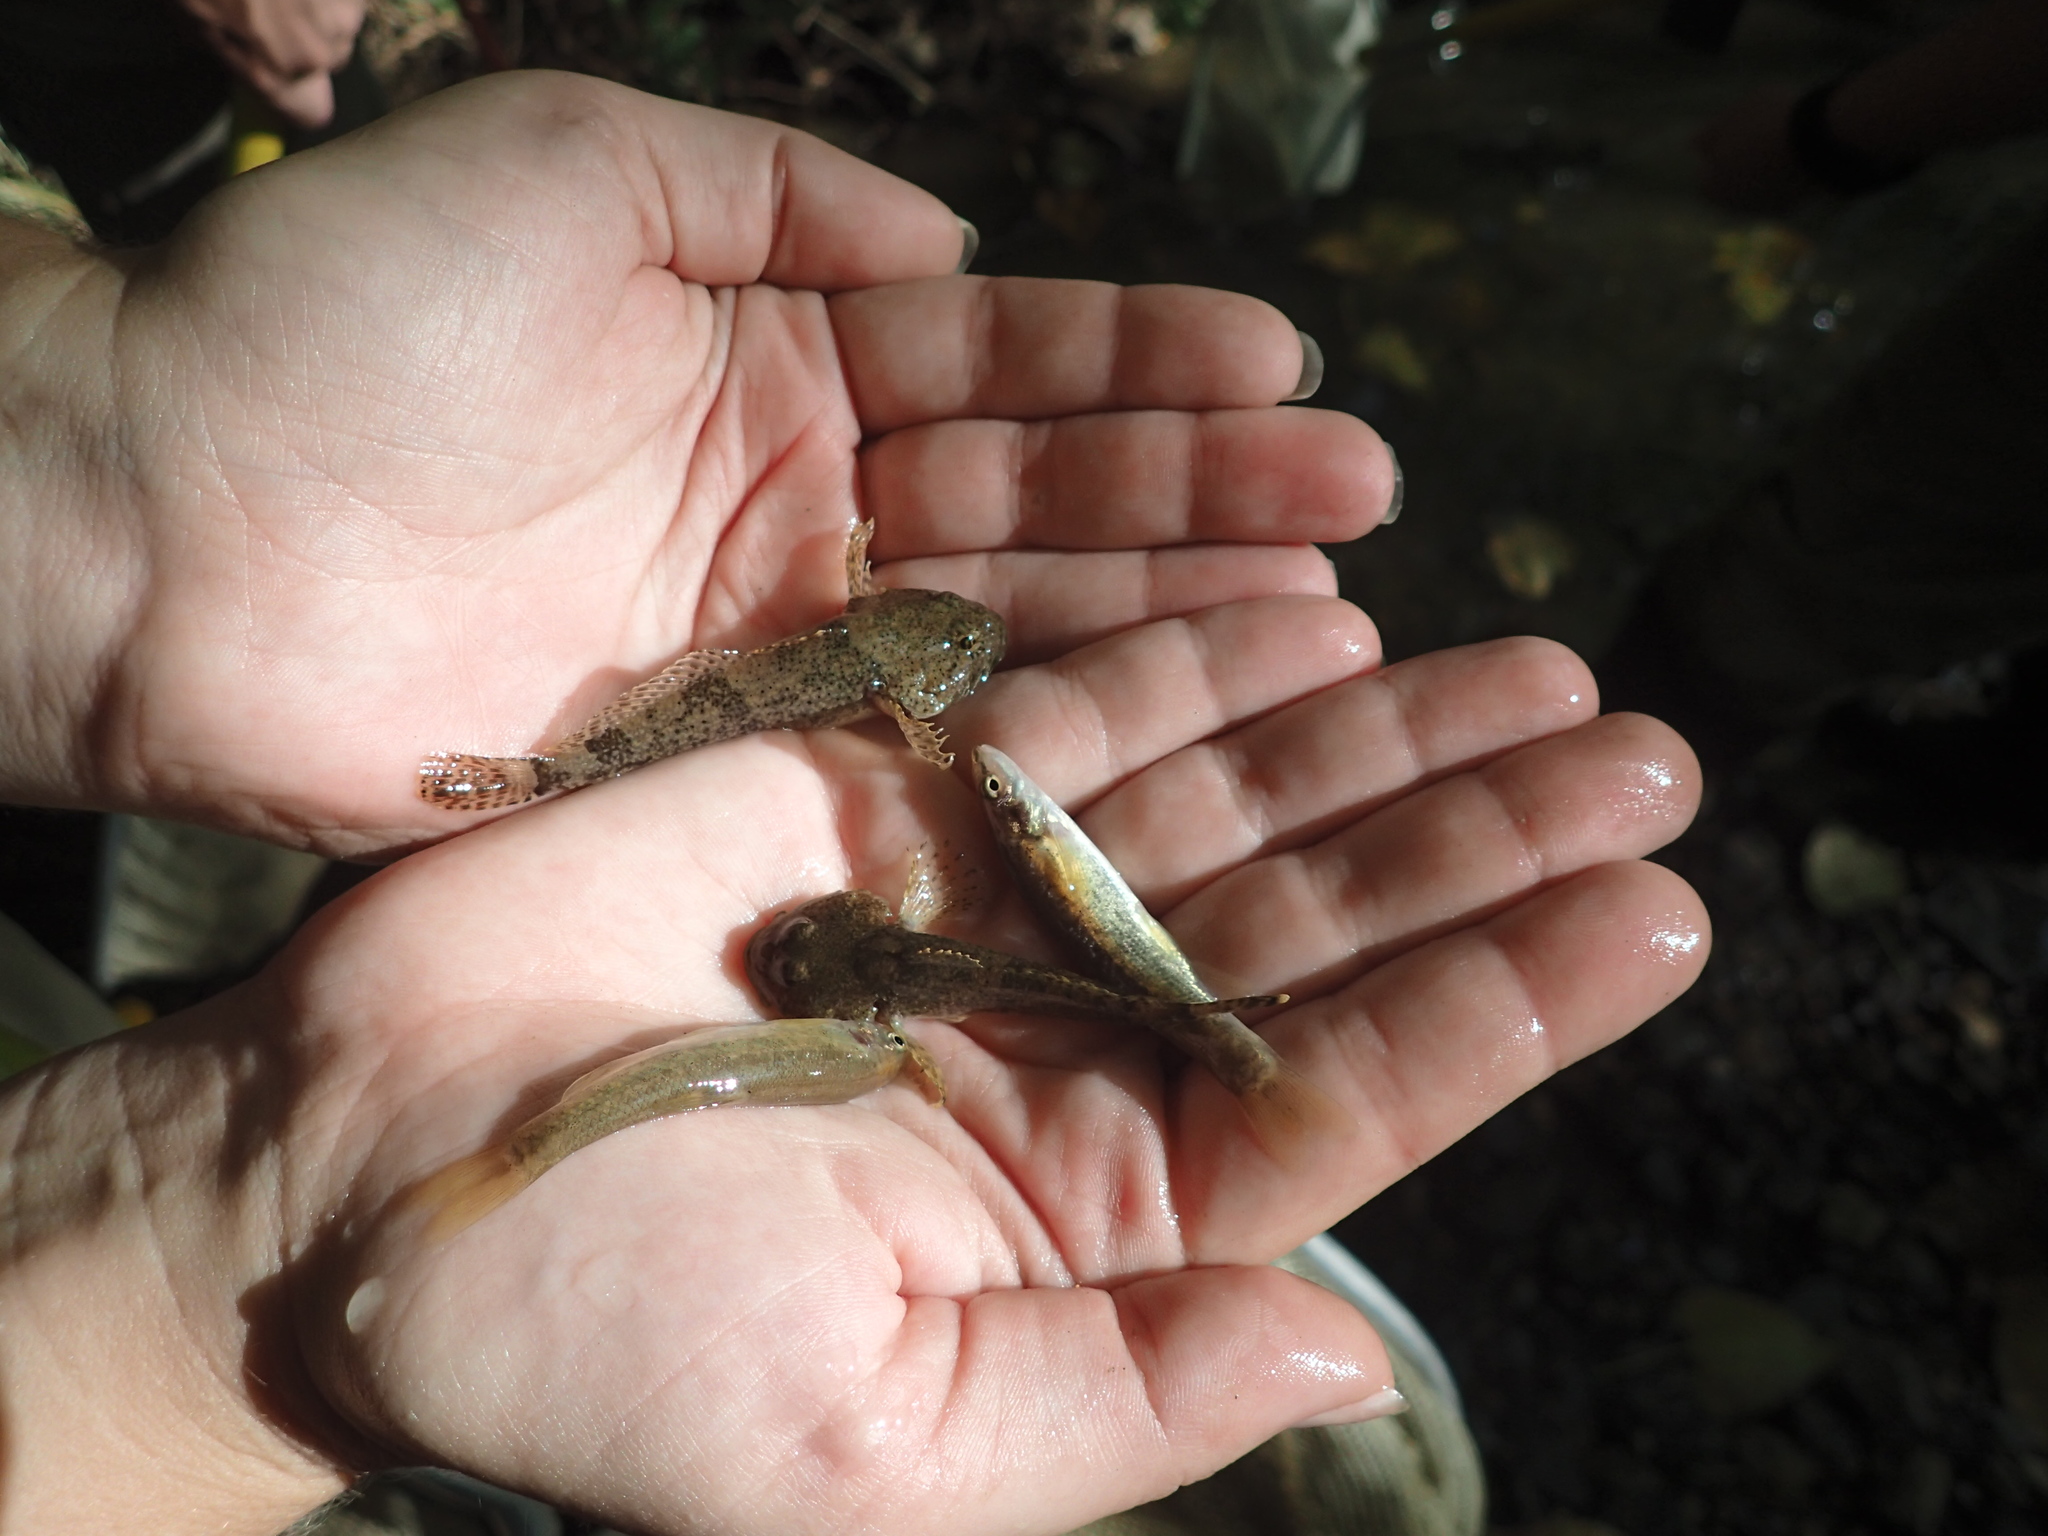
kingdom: Animalia
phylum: Chordata
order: Scorpaeniformes
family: Cottidae
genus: Cottus
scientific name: Cottus bairdii
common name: Mottled sculpin
